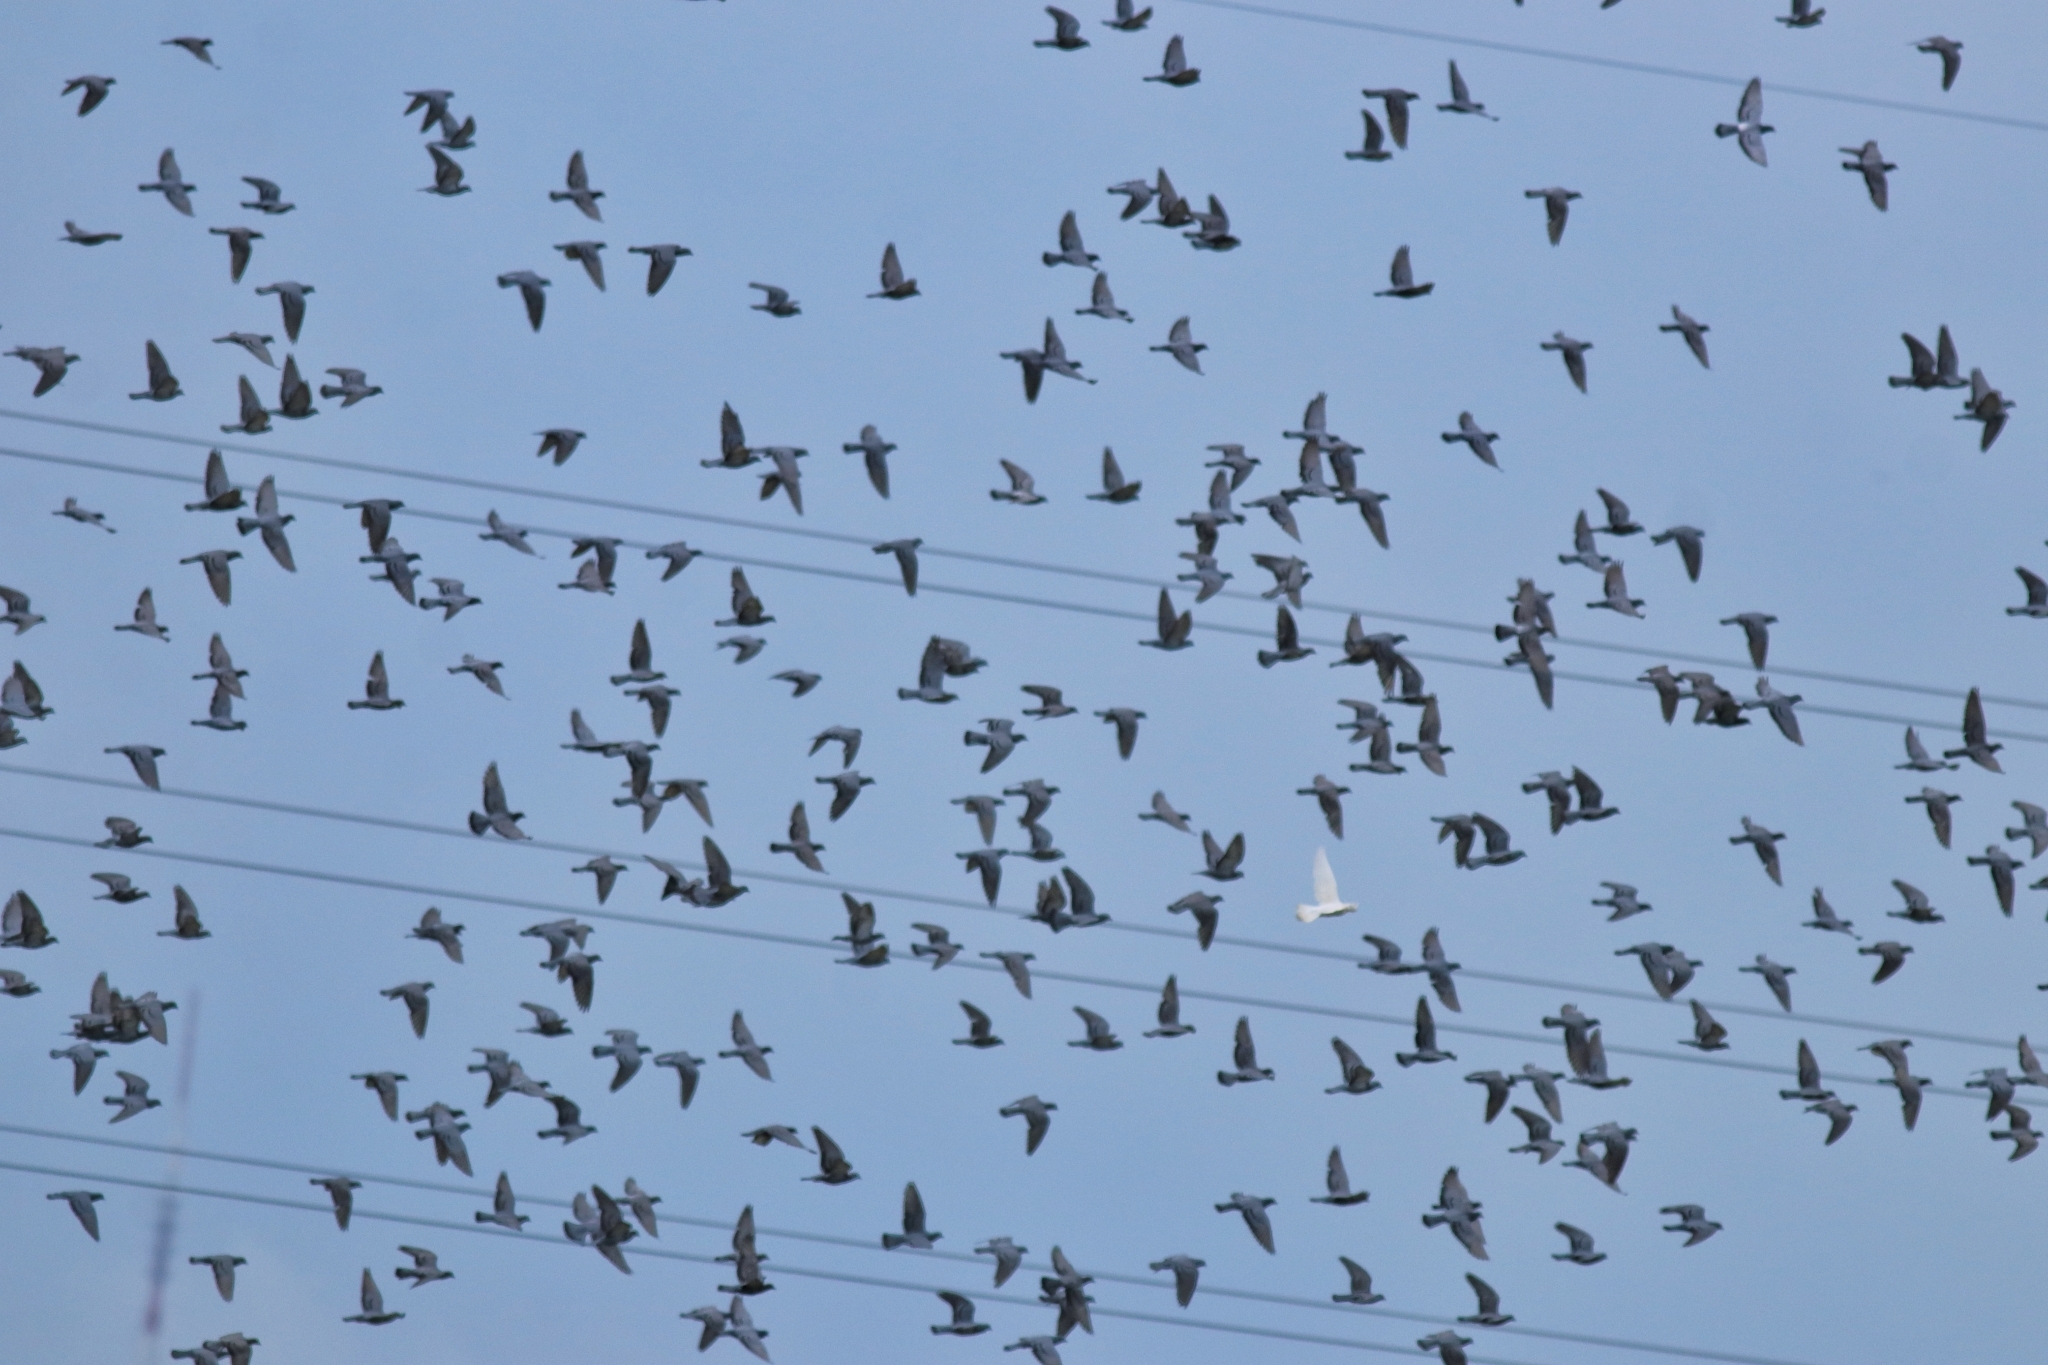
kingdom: Animalia
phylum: Chordata
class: Aves
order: Columbiformes
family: Columbidae
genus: Columba
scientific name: Columba livia
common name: Rock pigeon
